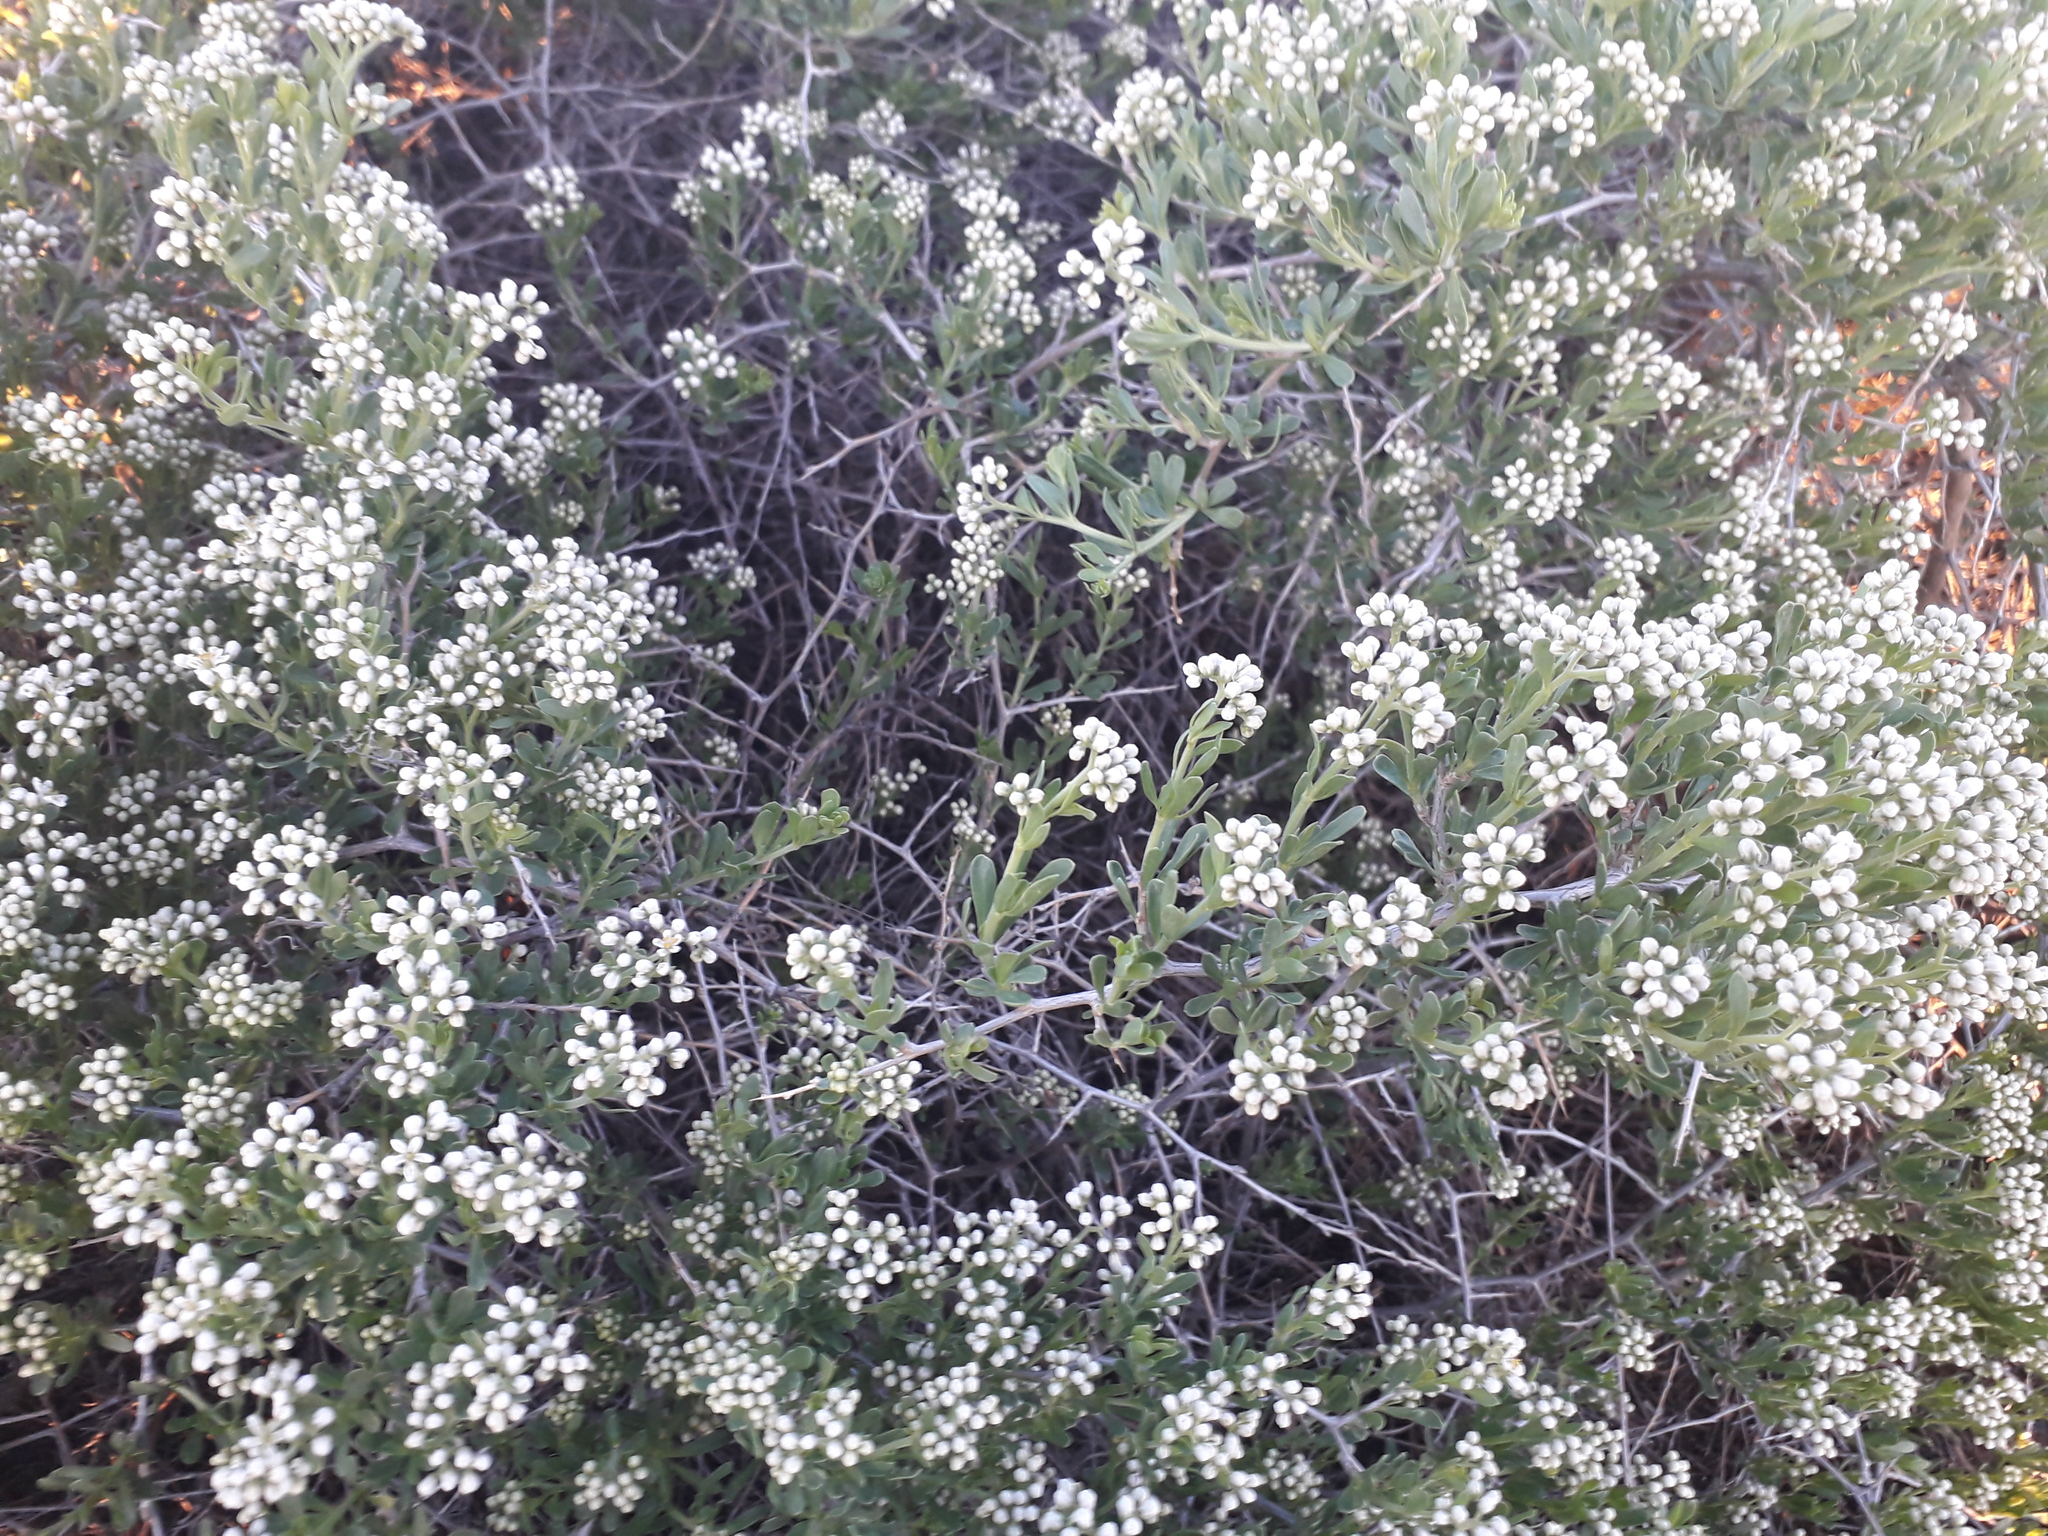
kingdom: Plantae
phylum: Tracheophyta
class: Magnoliopsida
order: Sapindales
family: Nitrariaceae
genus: Nitraria
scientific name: Nitraria sibirica
